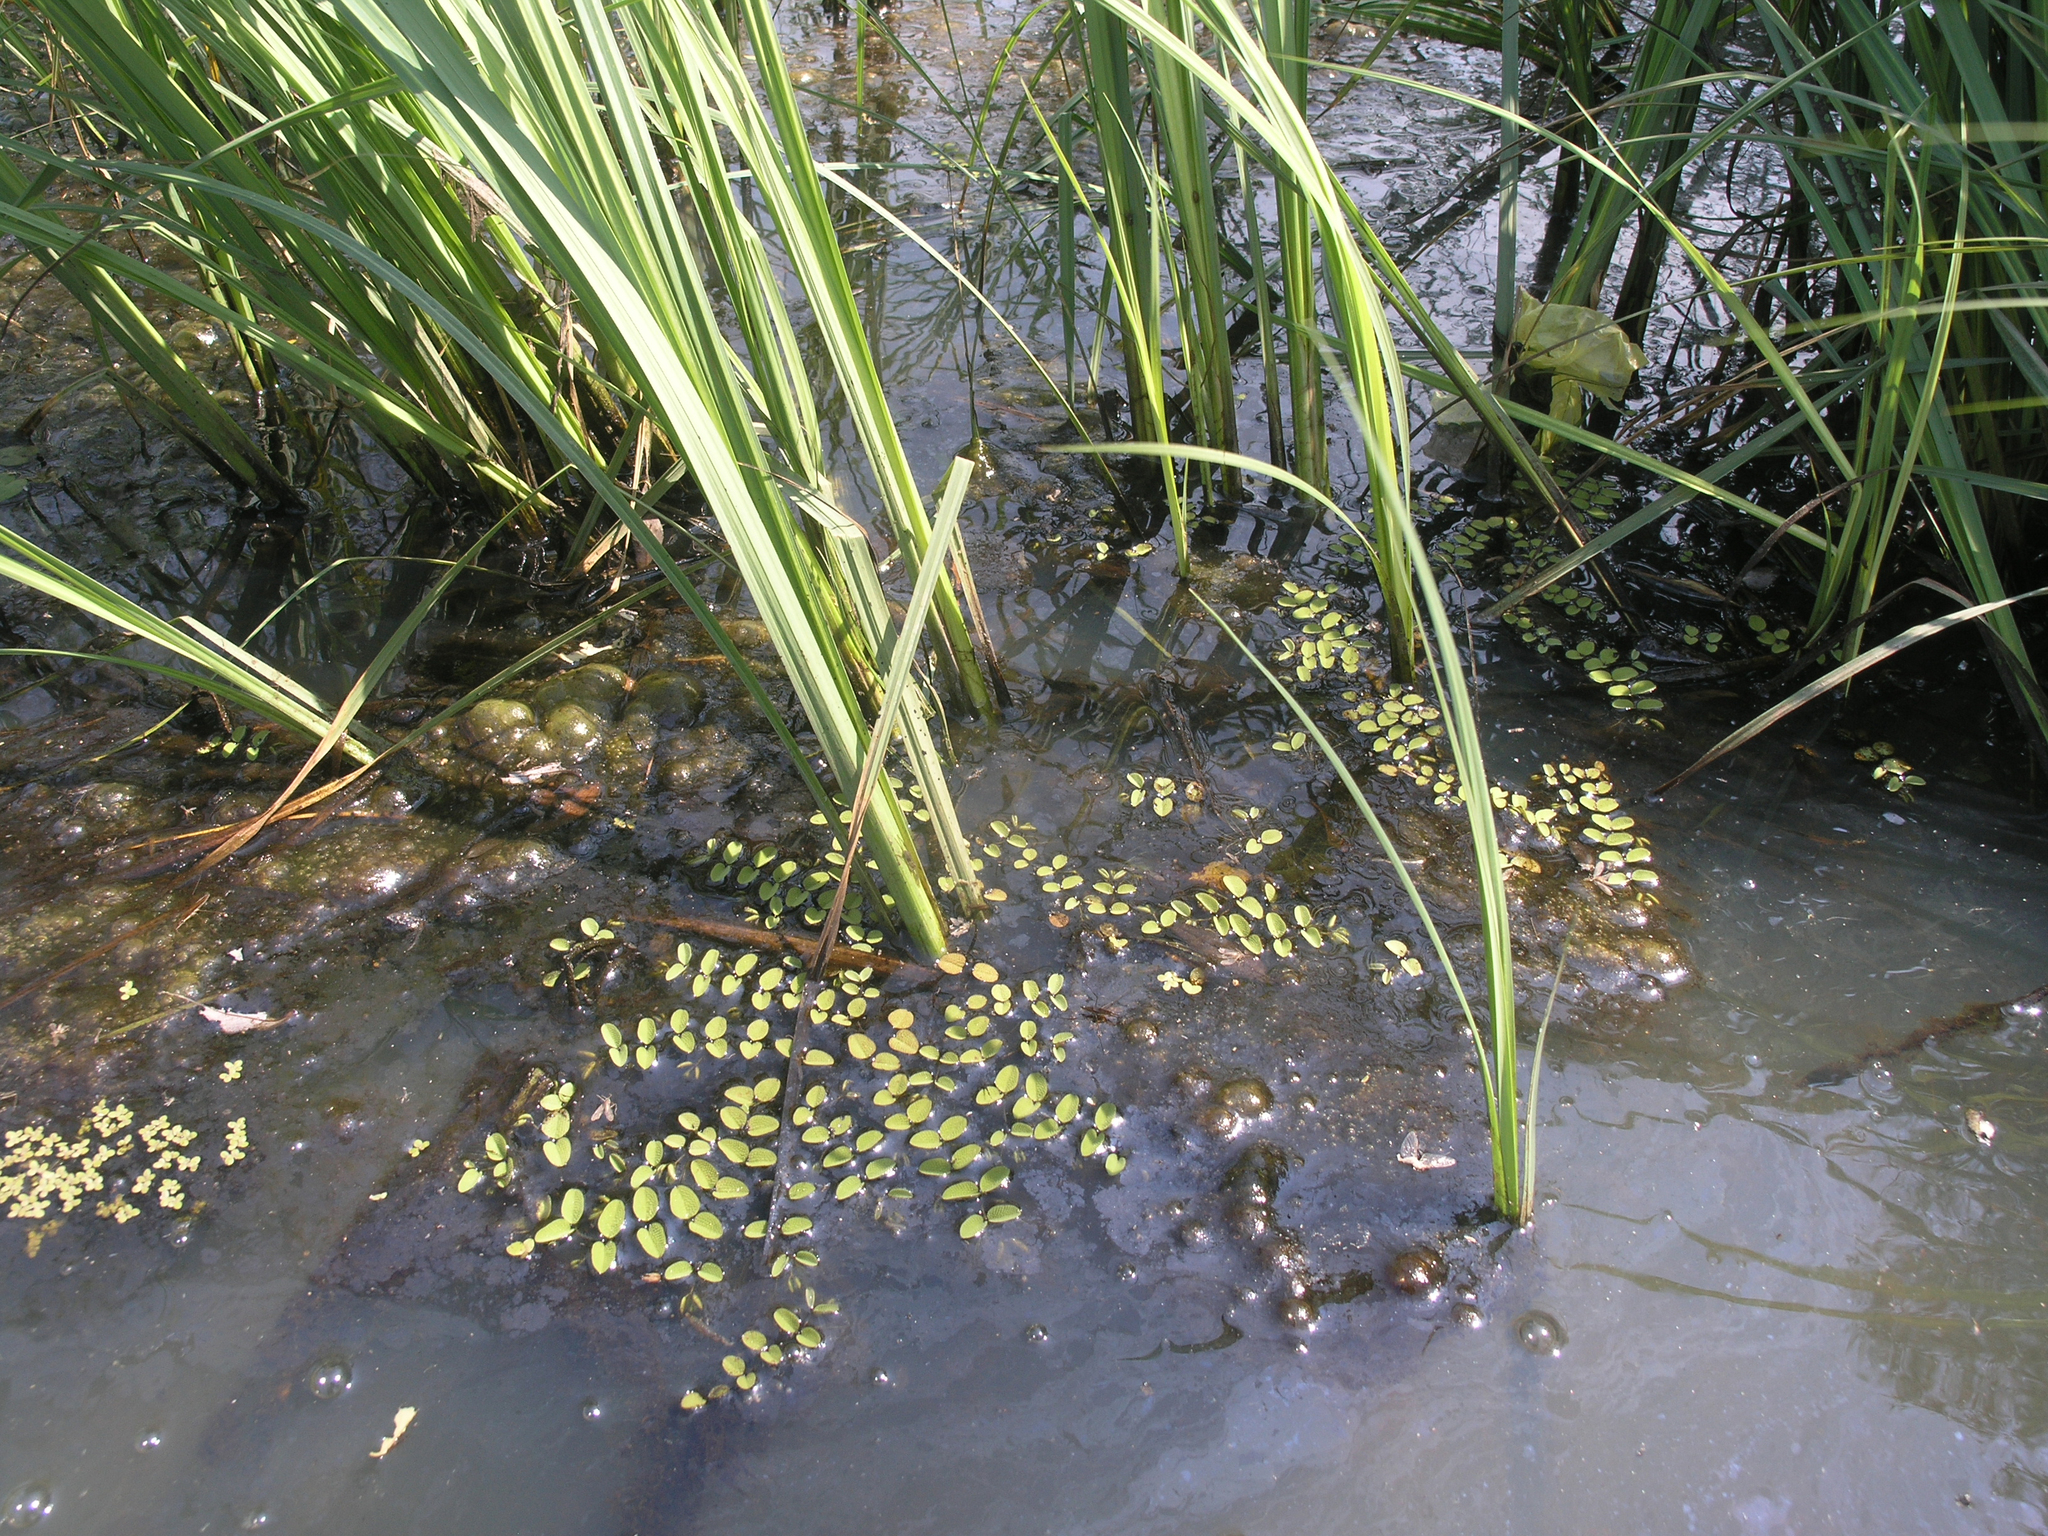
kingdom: Plantae
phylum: Tracheophyta
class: Polypodiopsida
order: Salviniales
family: Salviniaceae
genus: Salvinia
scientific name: Salvinia natans
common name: Floating fern
